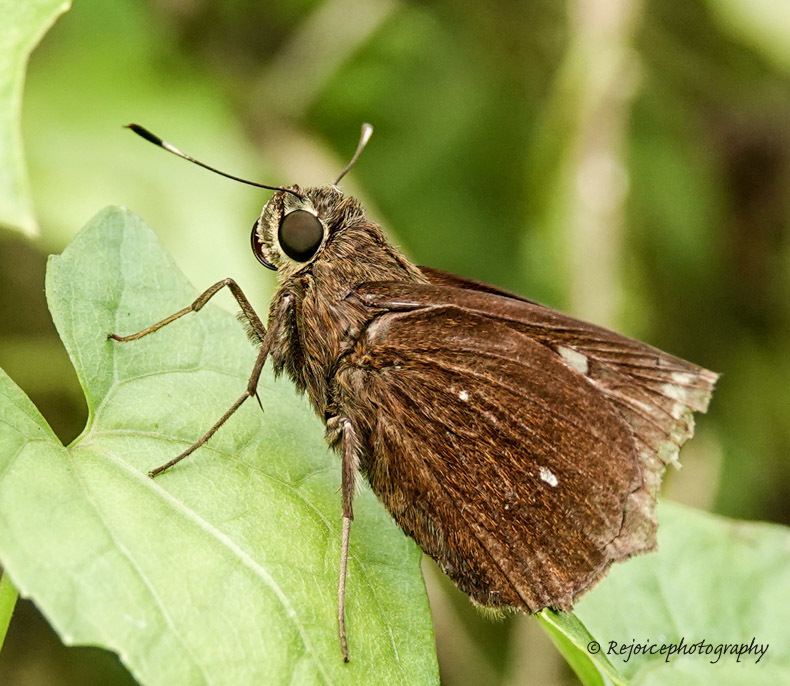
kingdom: Animalia
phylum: Arthropoda
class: Insecta
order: Lepidoptera
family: Hesperiidae
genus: Pelopidas
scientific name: Pelopidas assamensis
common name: Great swift
